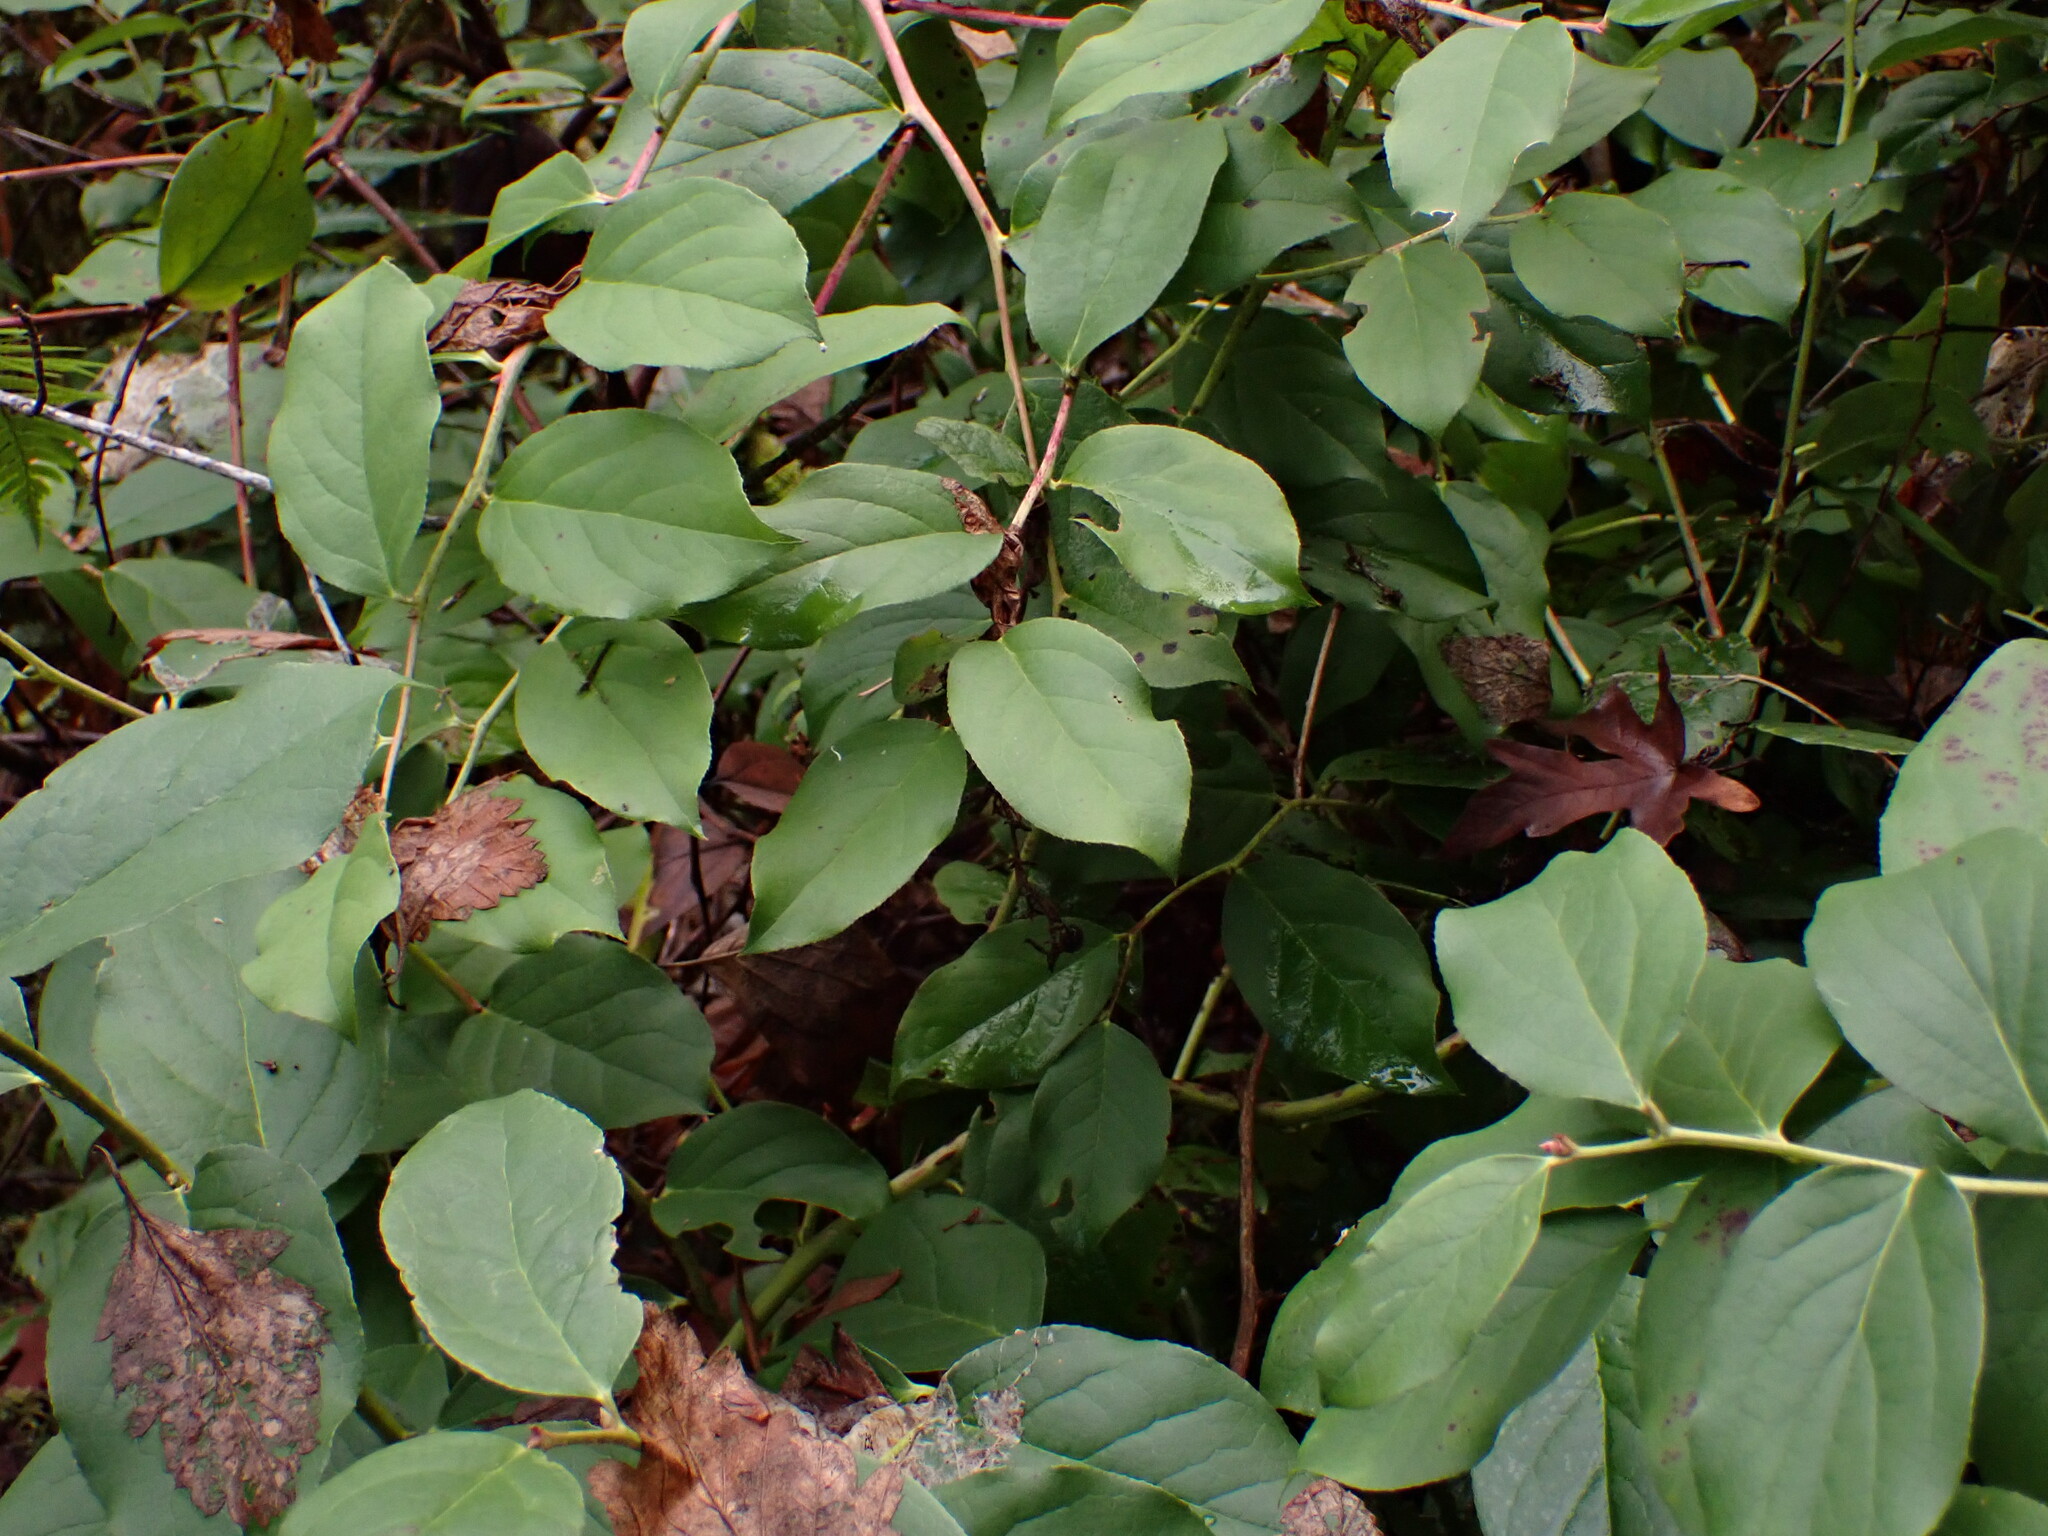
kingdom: Plantae
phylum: Tracheophyta
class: Magnoliopsida
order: Ericales
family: Ericaceae
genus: Gaultheria
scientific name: Gaultheria shallon
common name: Shallon
